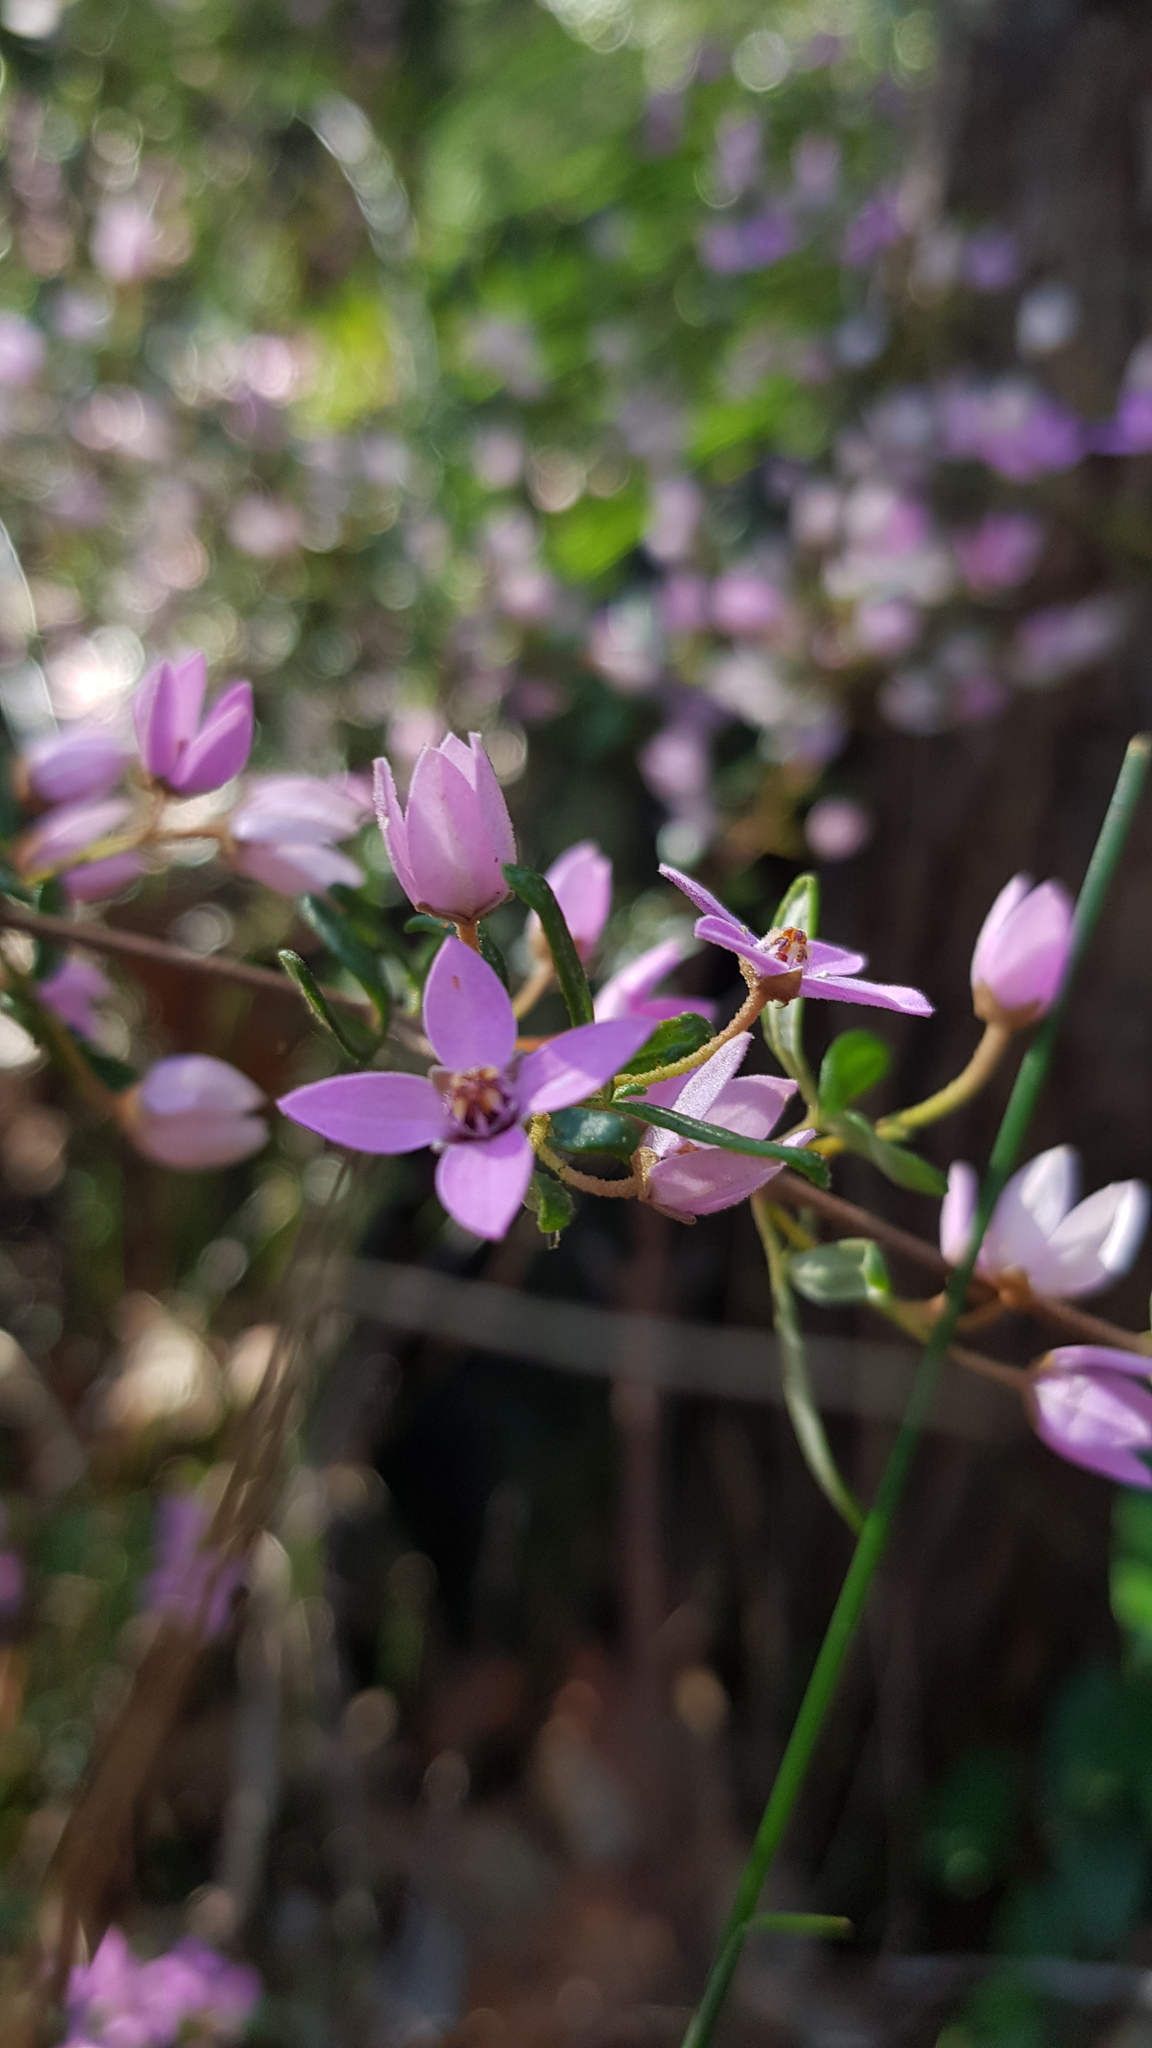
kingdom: Plantae
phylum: Tracheophyta
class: Magnoliopsida
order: Sapindales
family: Rutaceae
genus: Boronia
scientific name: Boronia ledifolia
